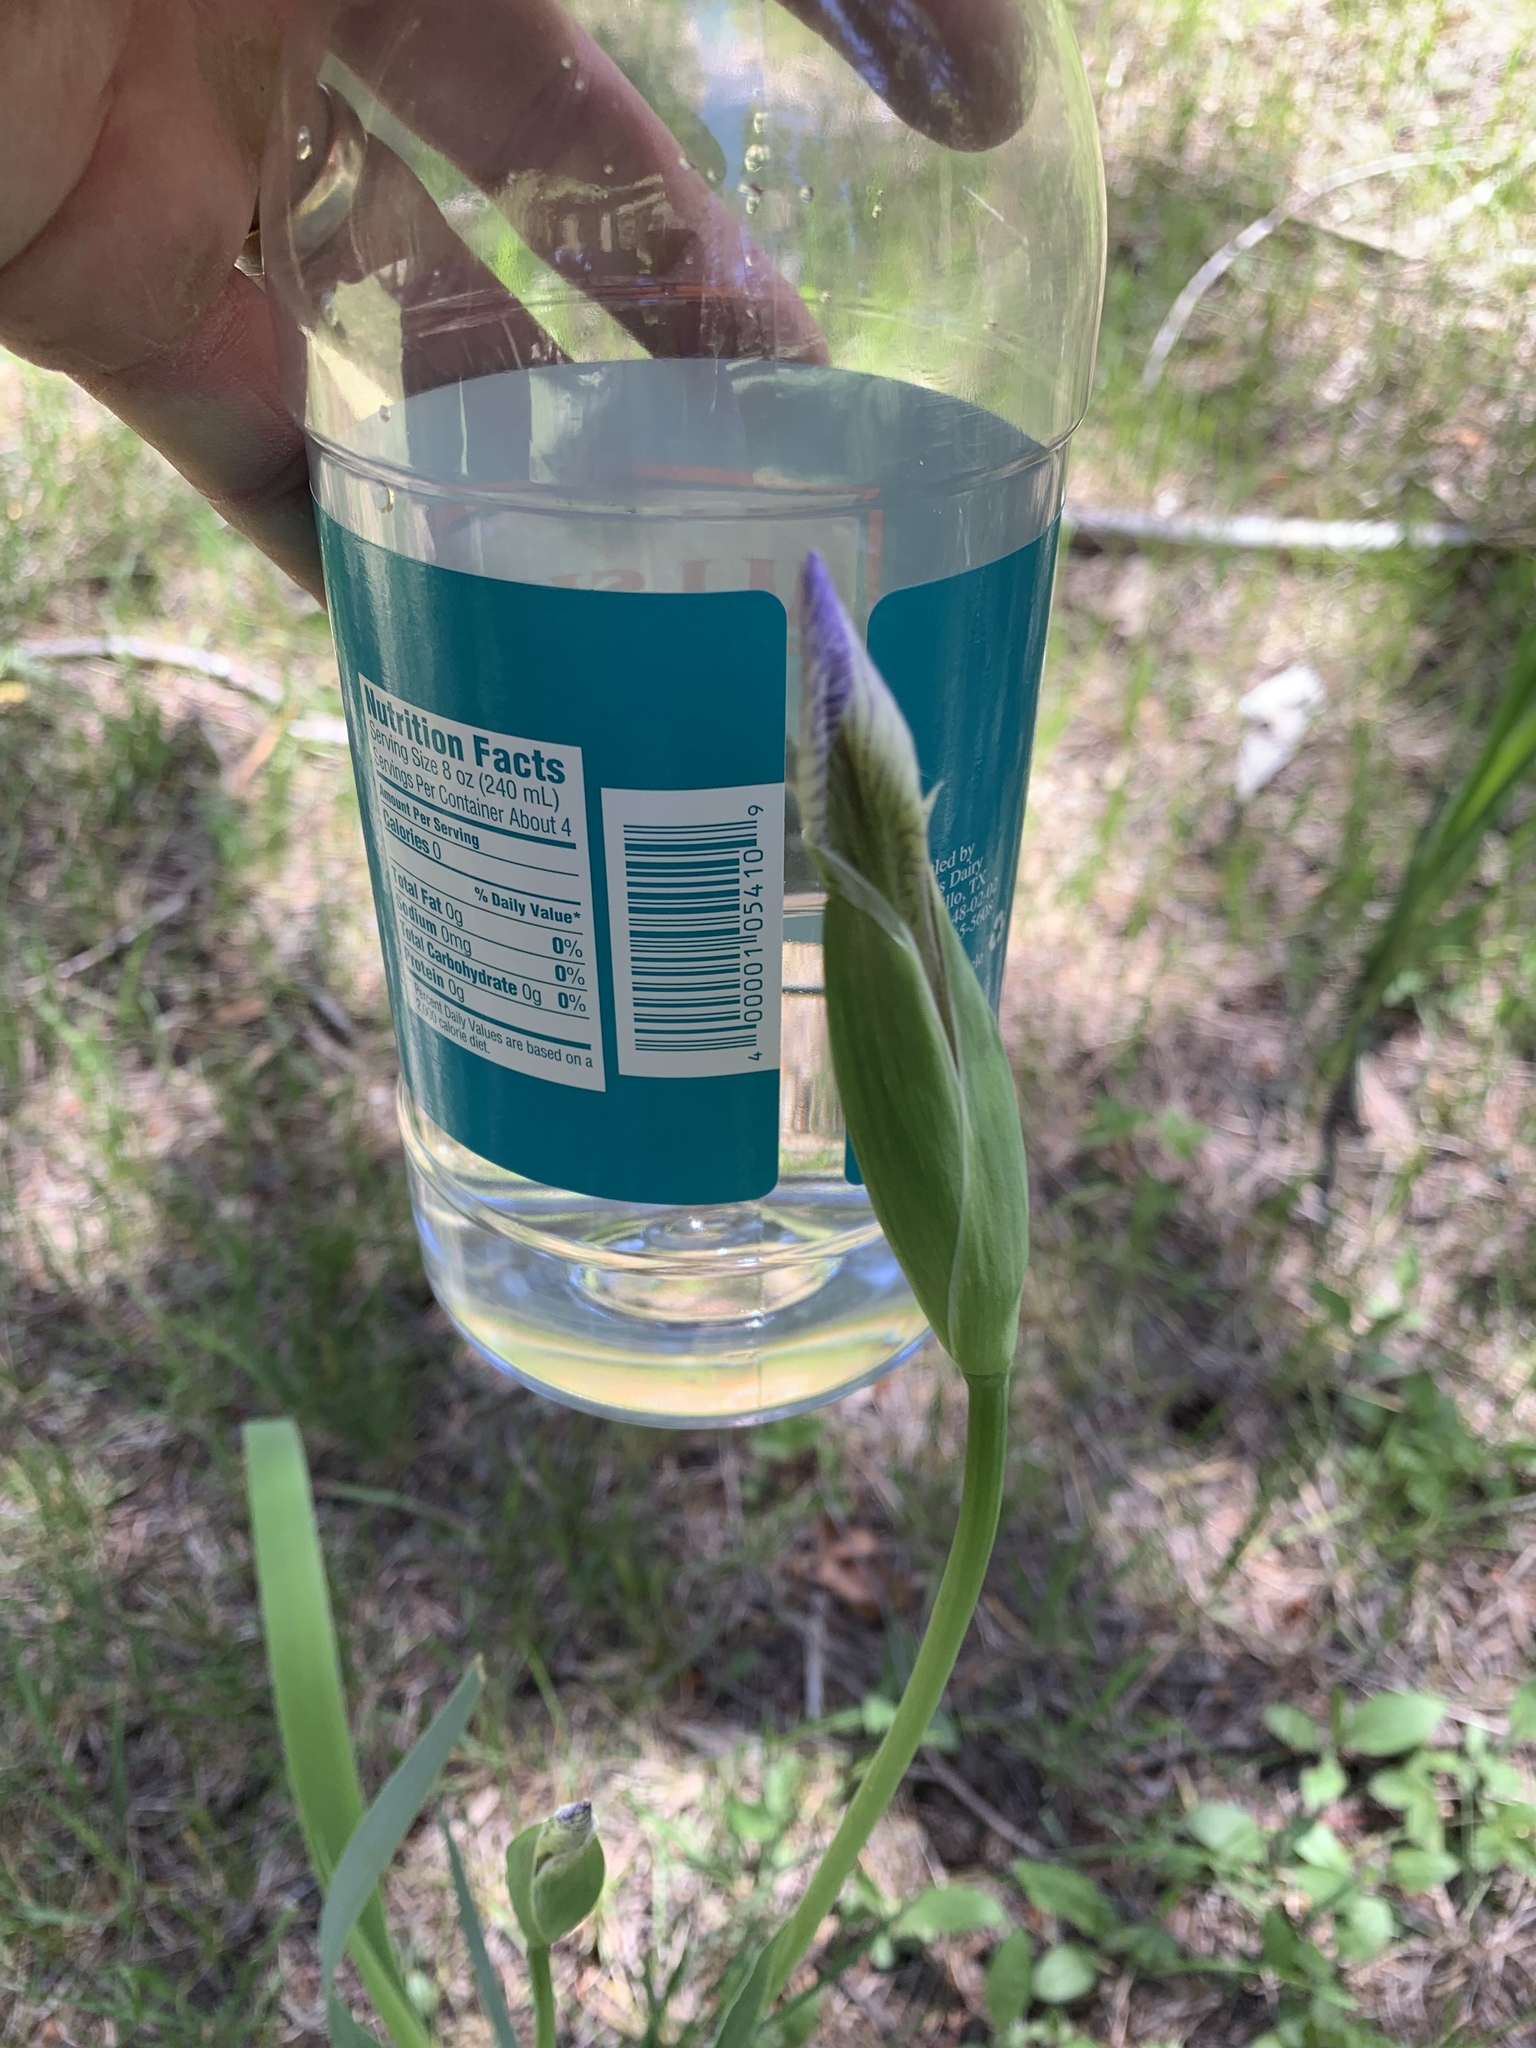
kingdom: Plantae
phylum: Tracheophyta
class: Liliopsida
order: Asparagales
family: Iridaceae
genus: Iris
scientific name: Iris missouriensis
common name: Rocky mountain iris
